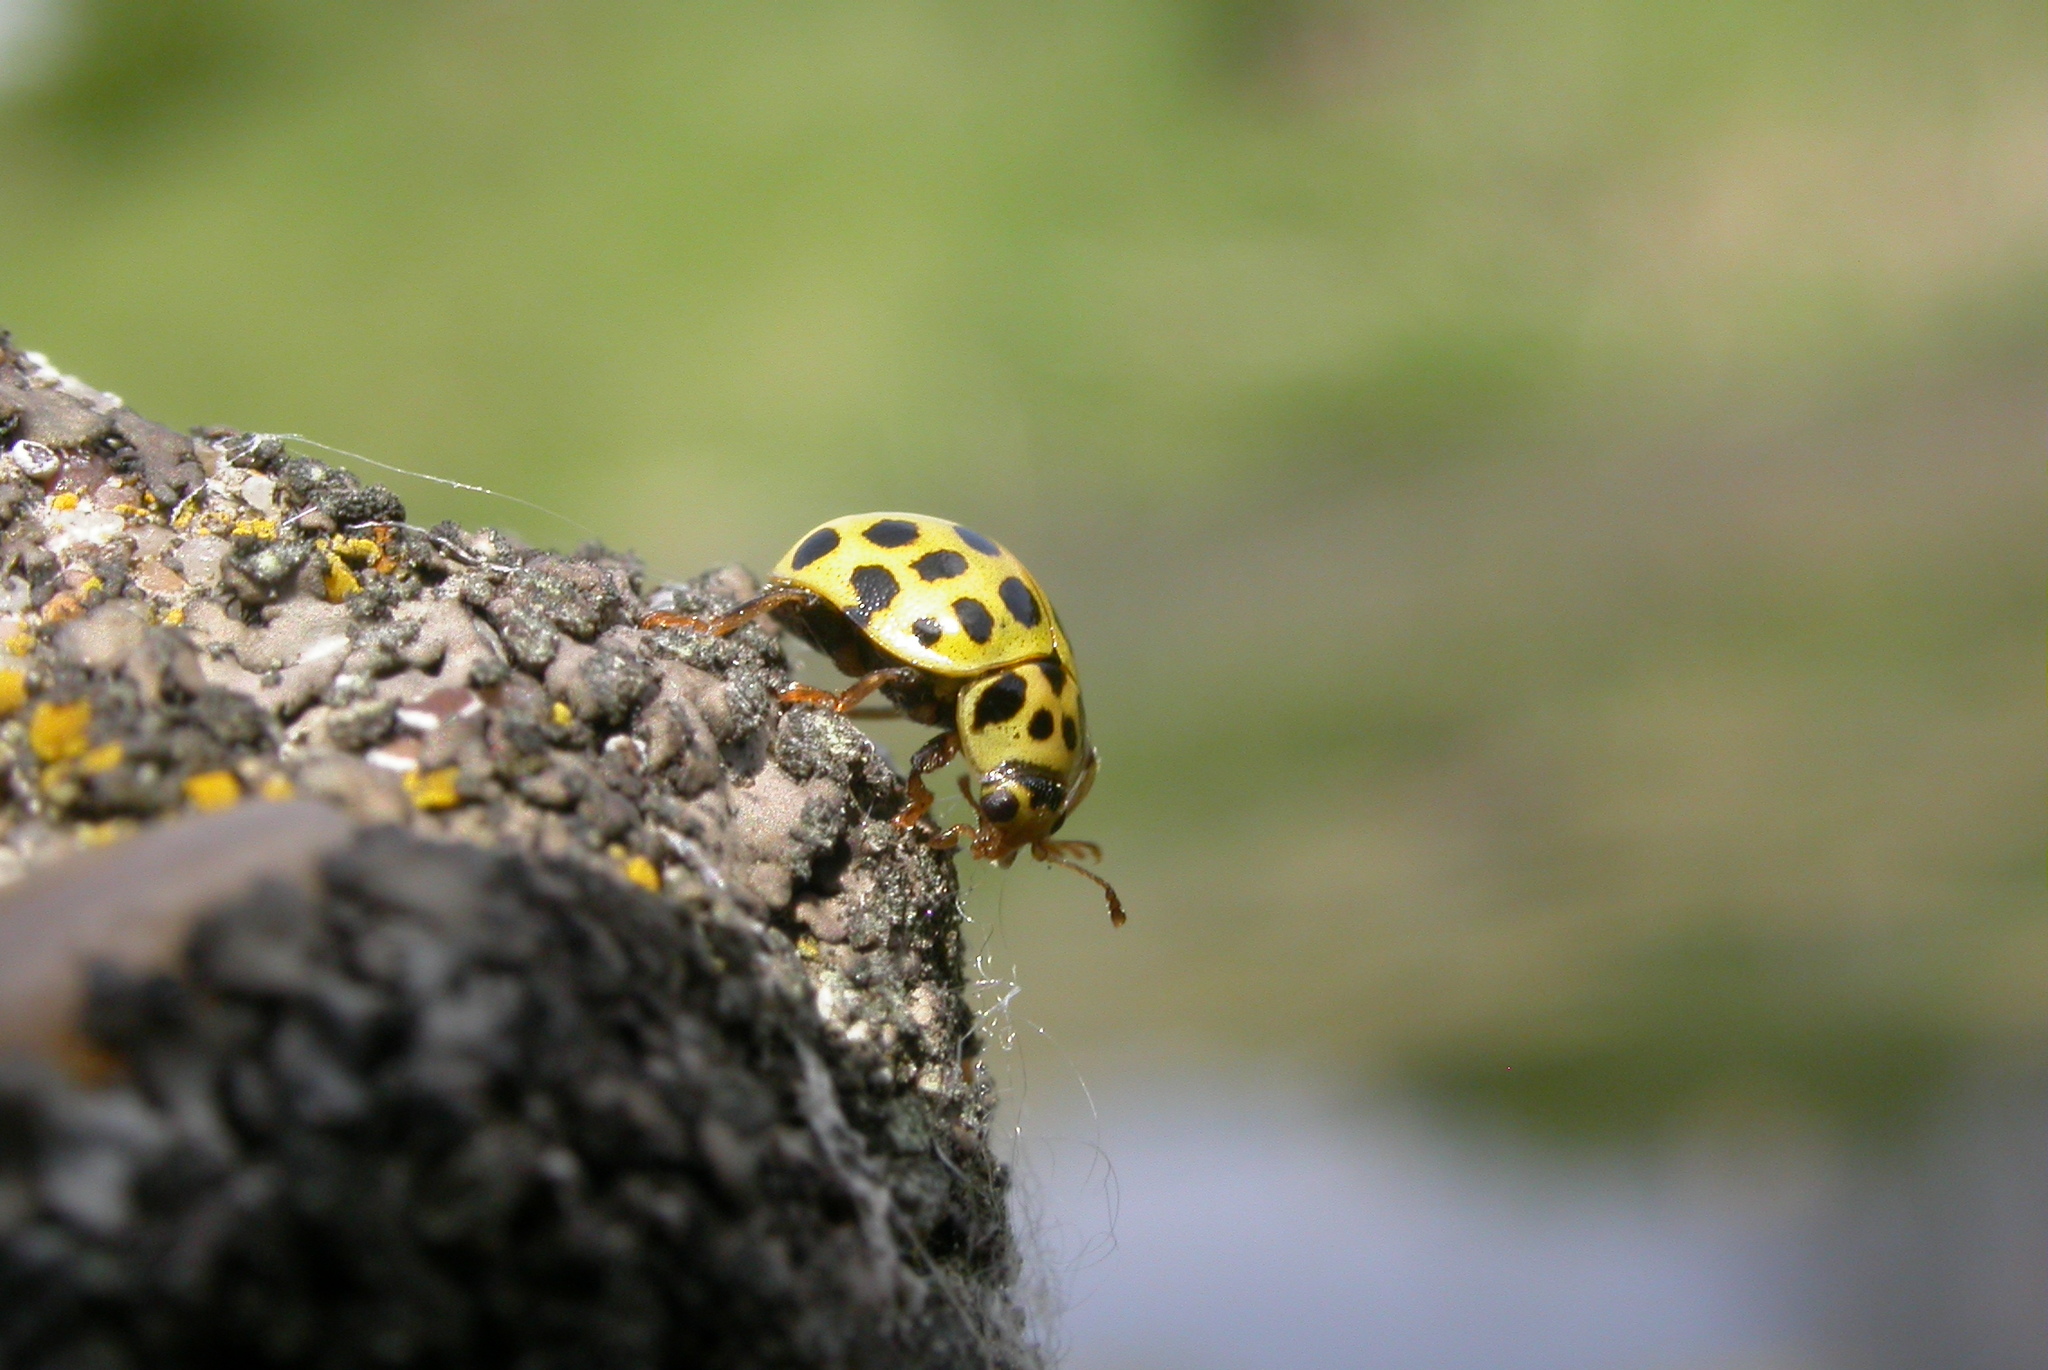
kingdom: Animalia
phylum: Arthropoda
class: Insecta
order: Coleoptera
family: Coccinellidae
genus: Psyllobora
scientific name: Psyllobora vigintiduopunctata
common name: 22-spot ladybird
